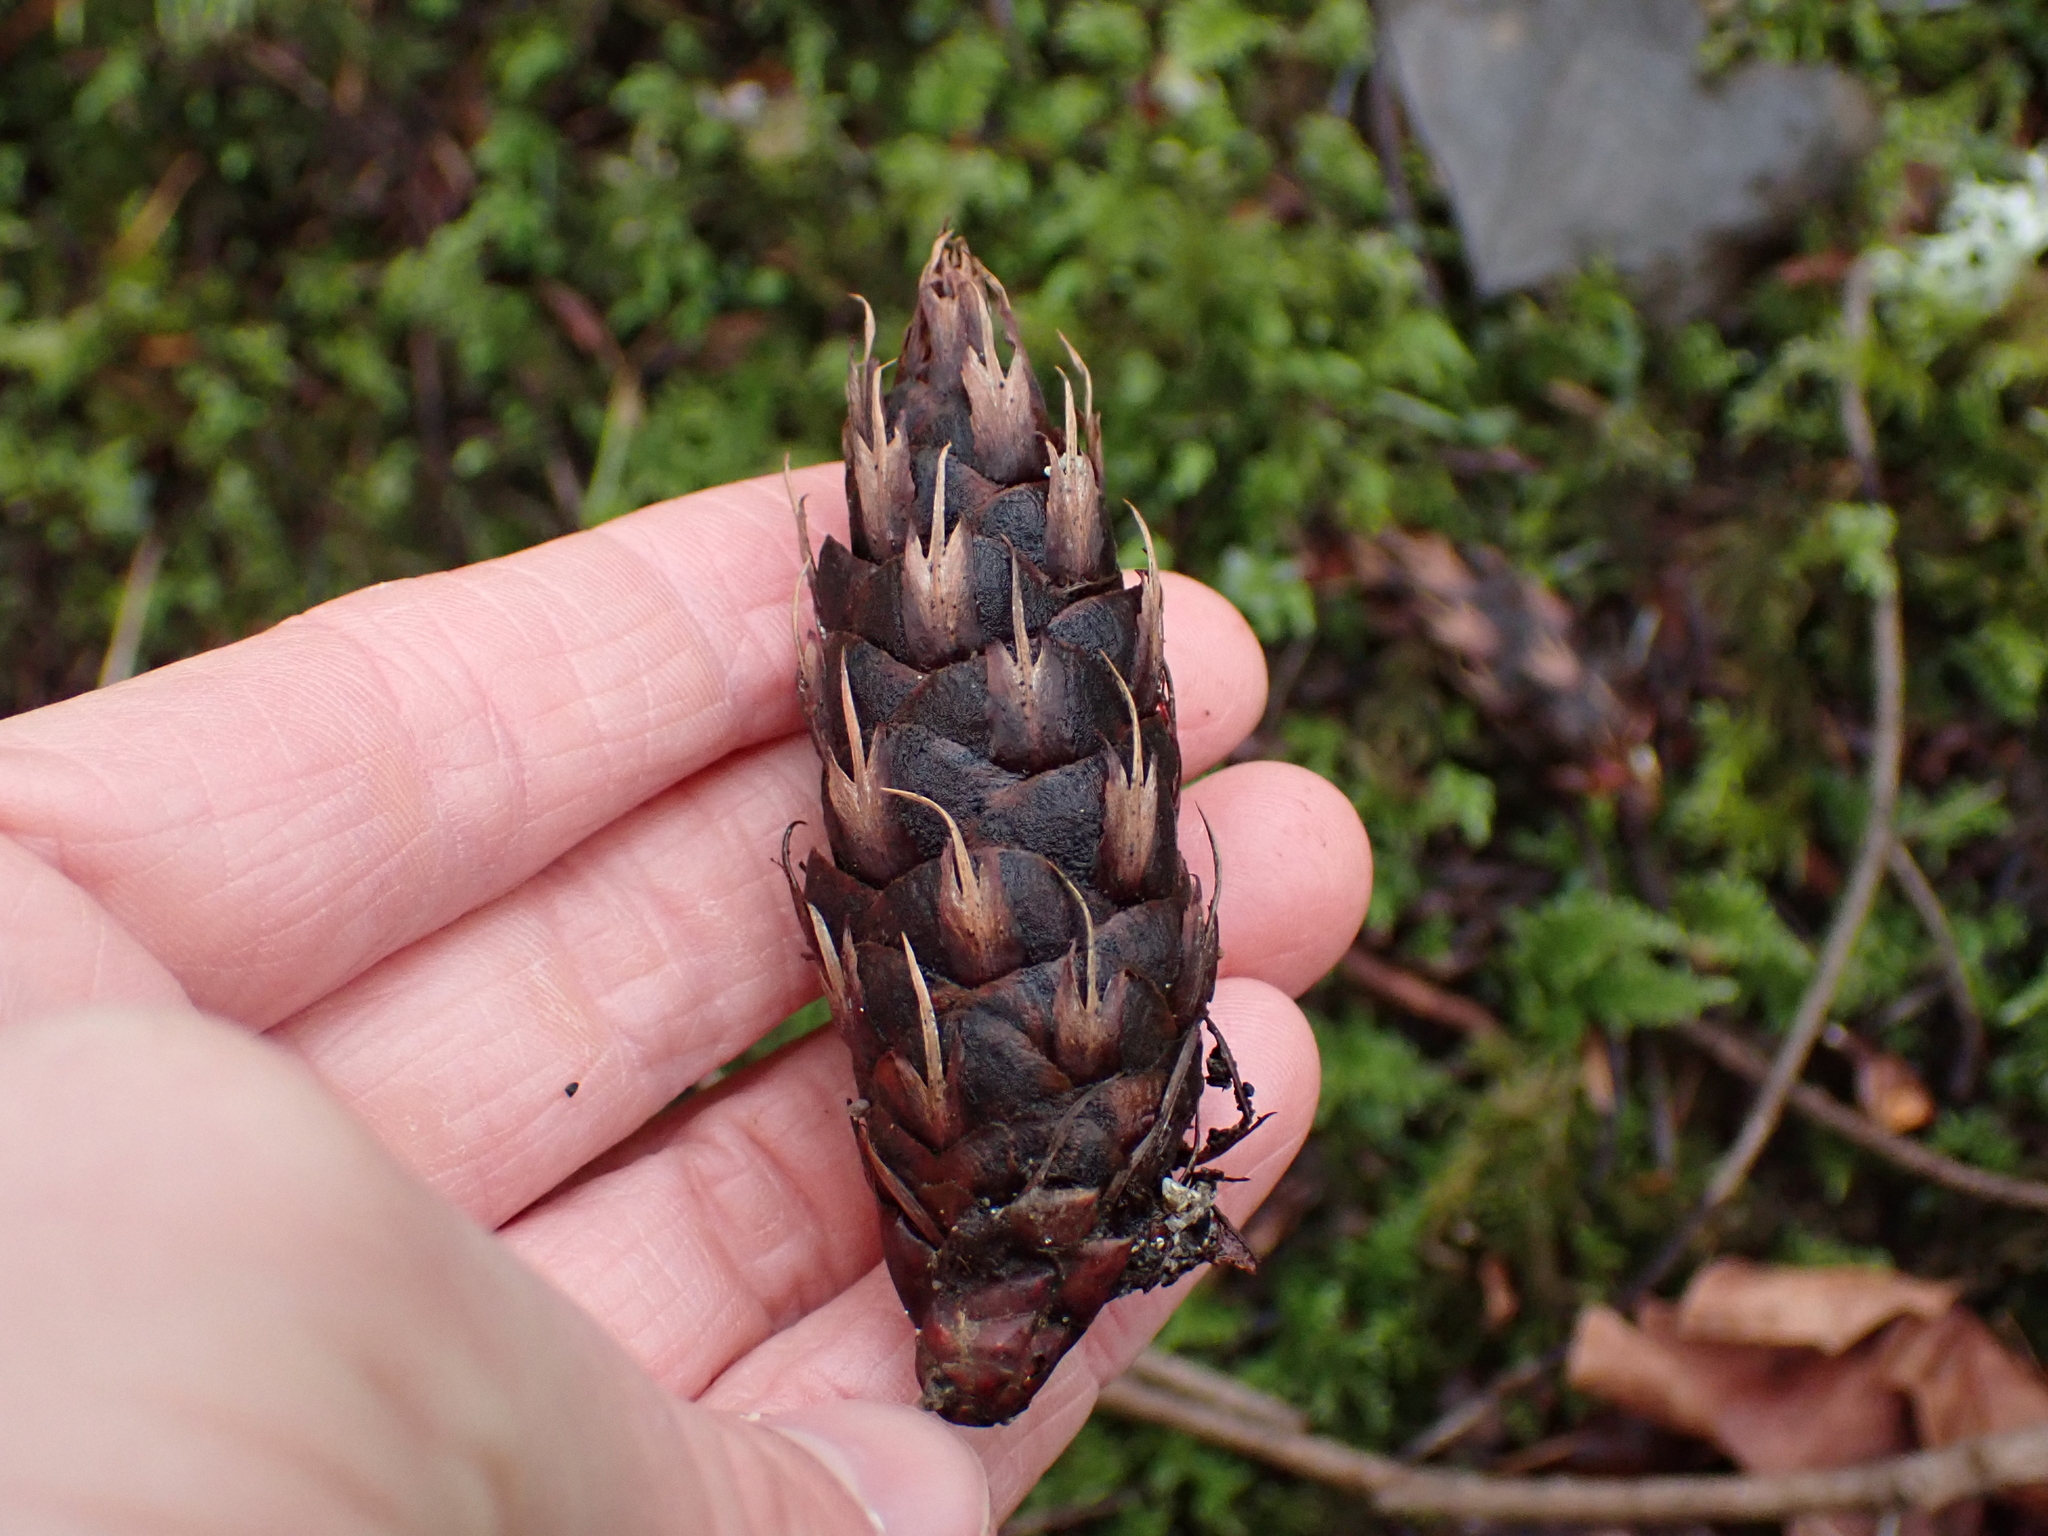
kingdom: Plantae
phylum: Tracheophyta
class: Pinopsida
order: Pinales
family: Pinaceae
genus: Pseudotsuga
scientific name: Pseudotsuga menziesii
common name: Douglas fir
